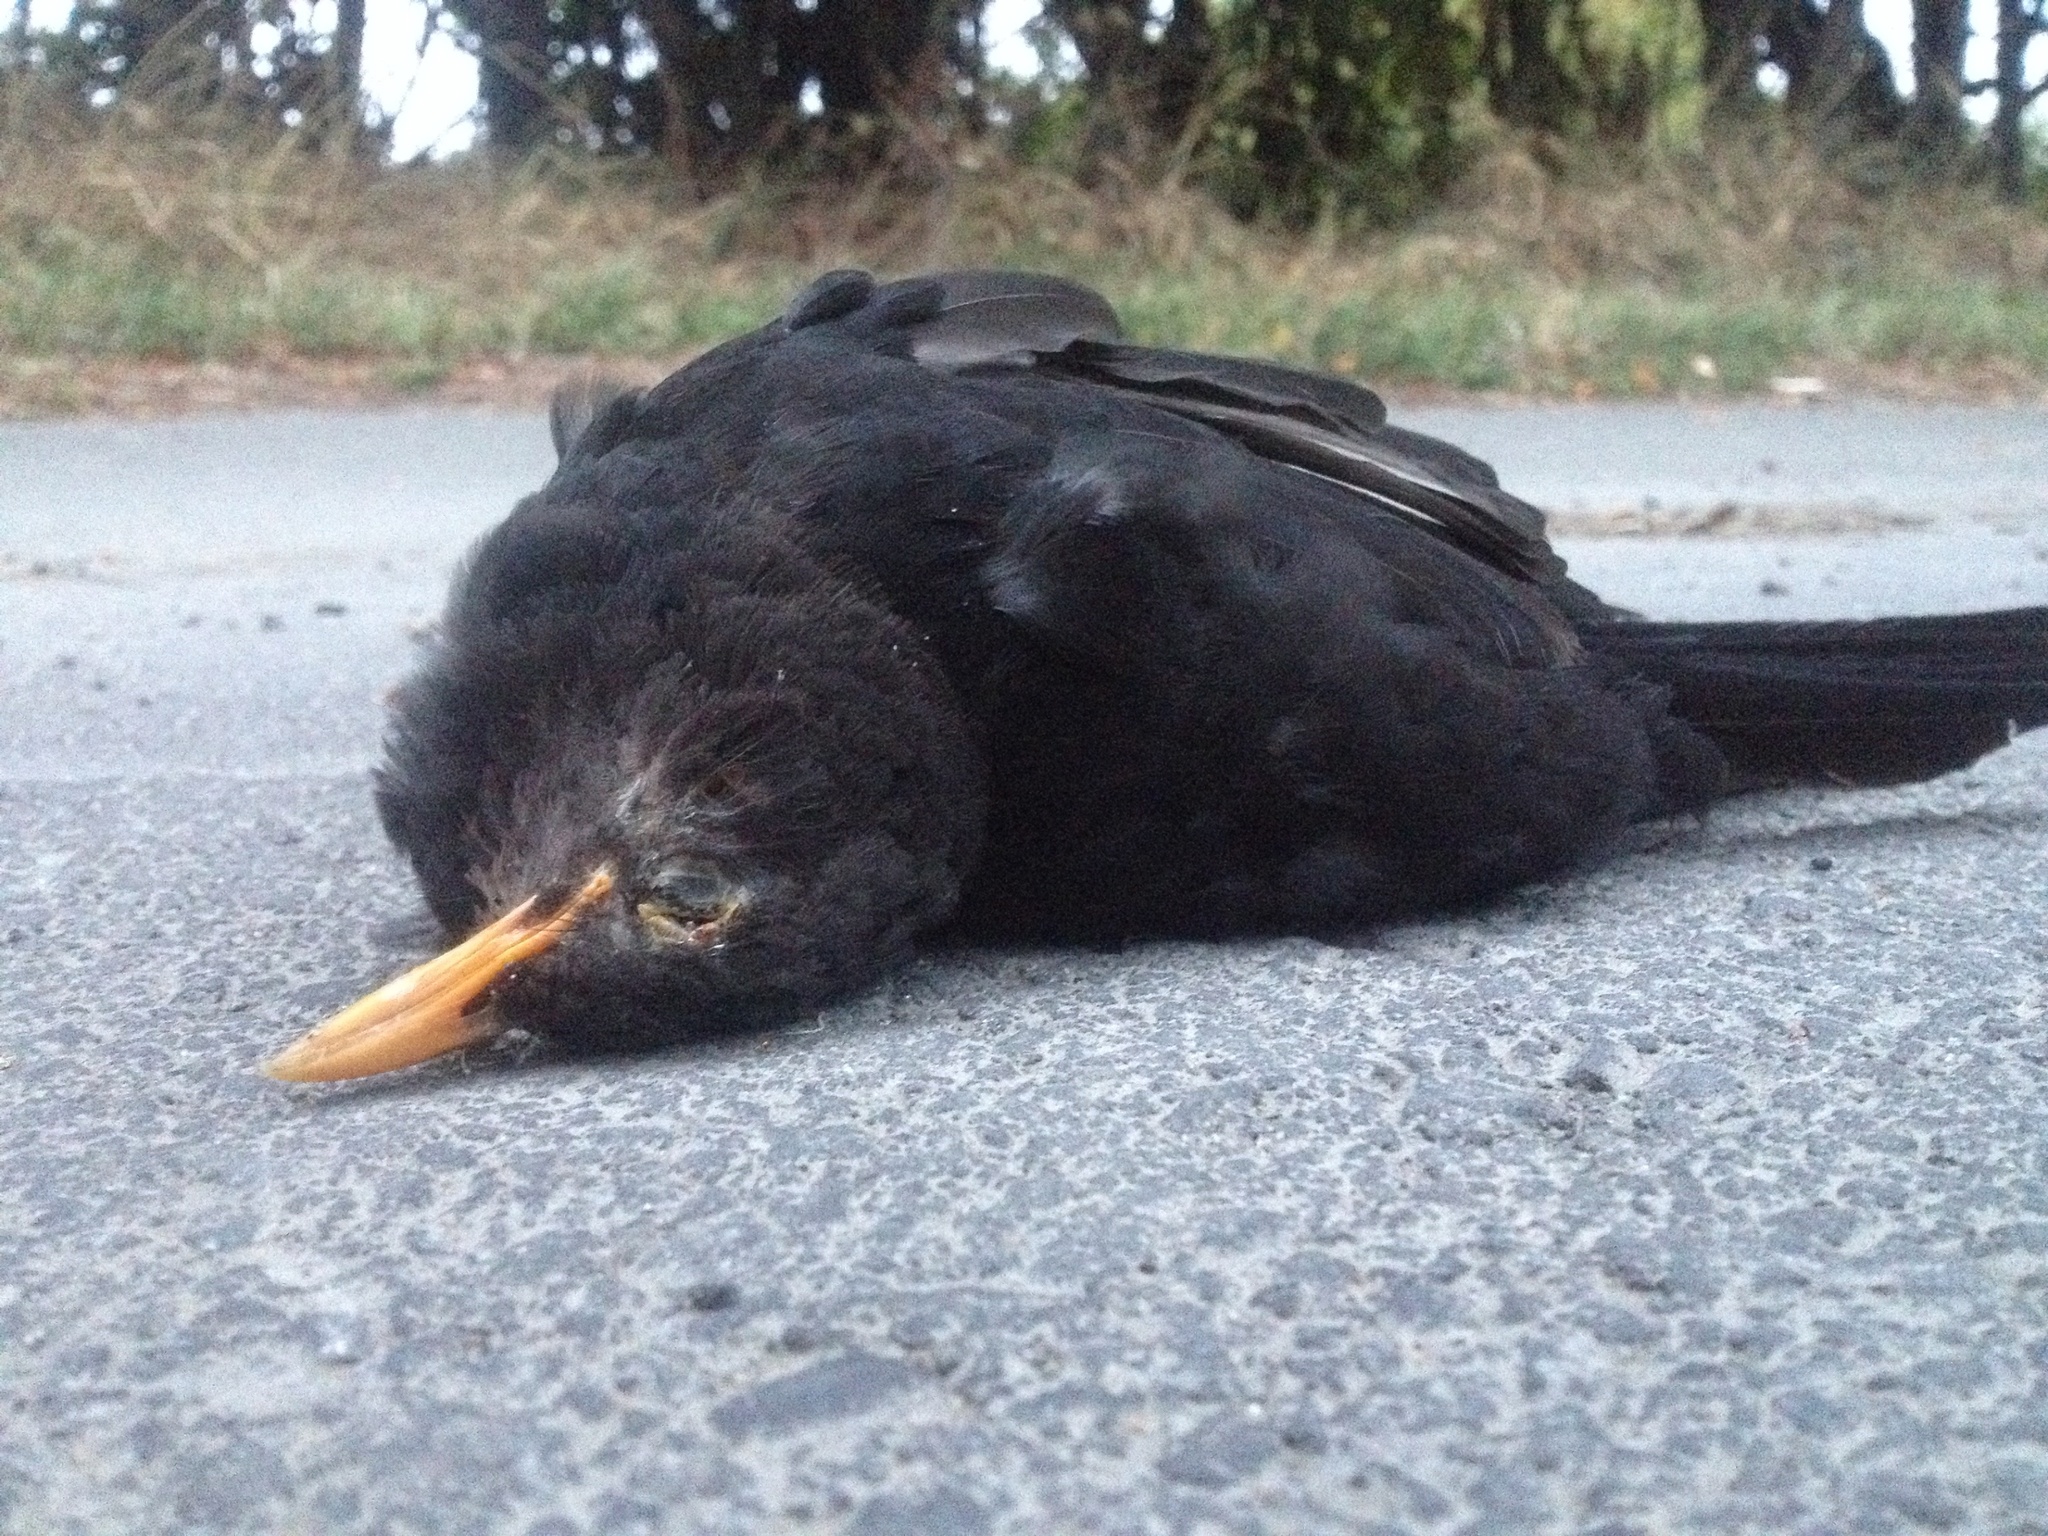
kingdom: Animalia
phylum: Chordata
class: Aves
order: Passeriformes
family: Turdidae
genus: Turdus
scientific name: Turdus merula
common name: Common blackbird
